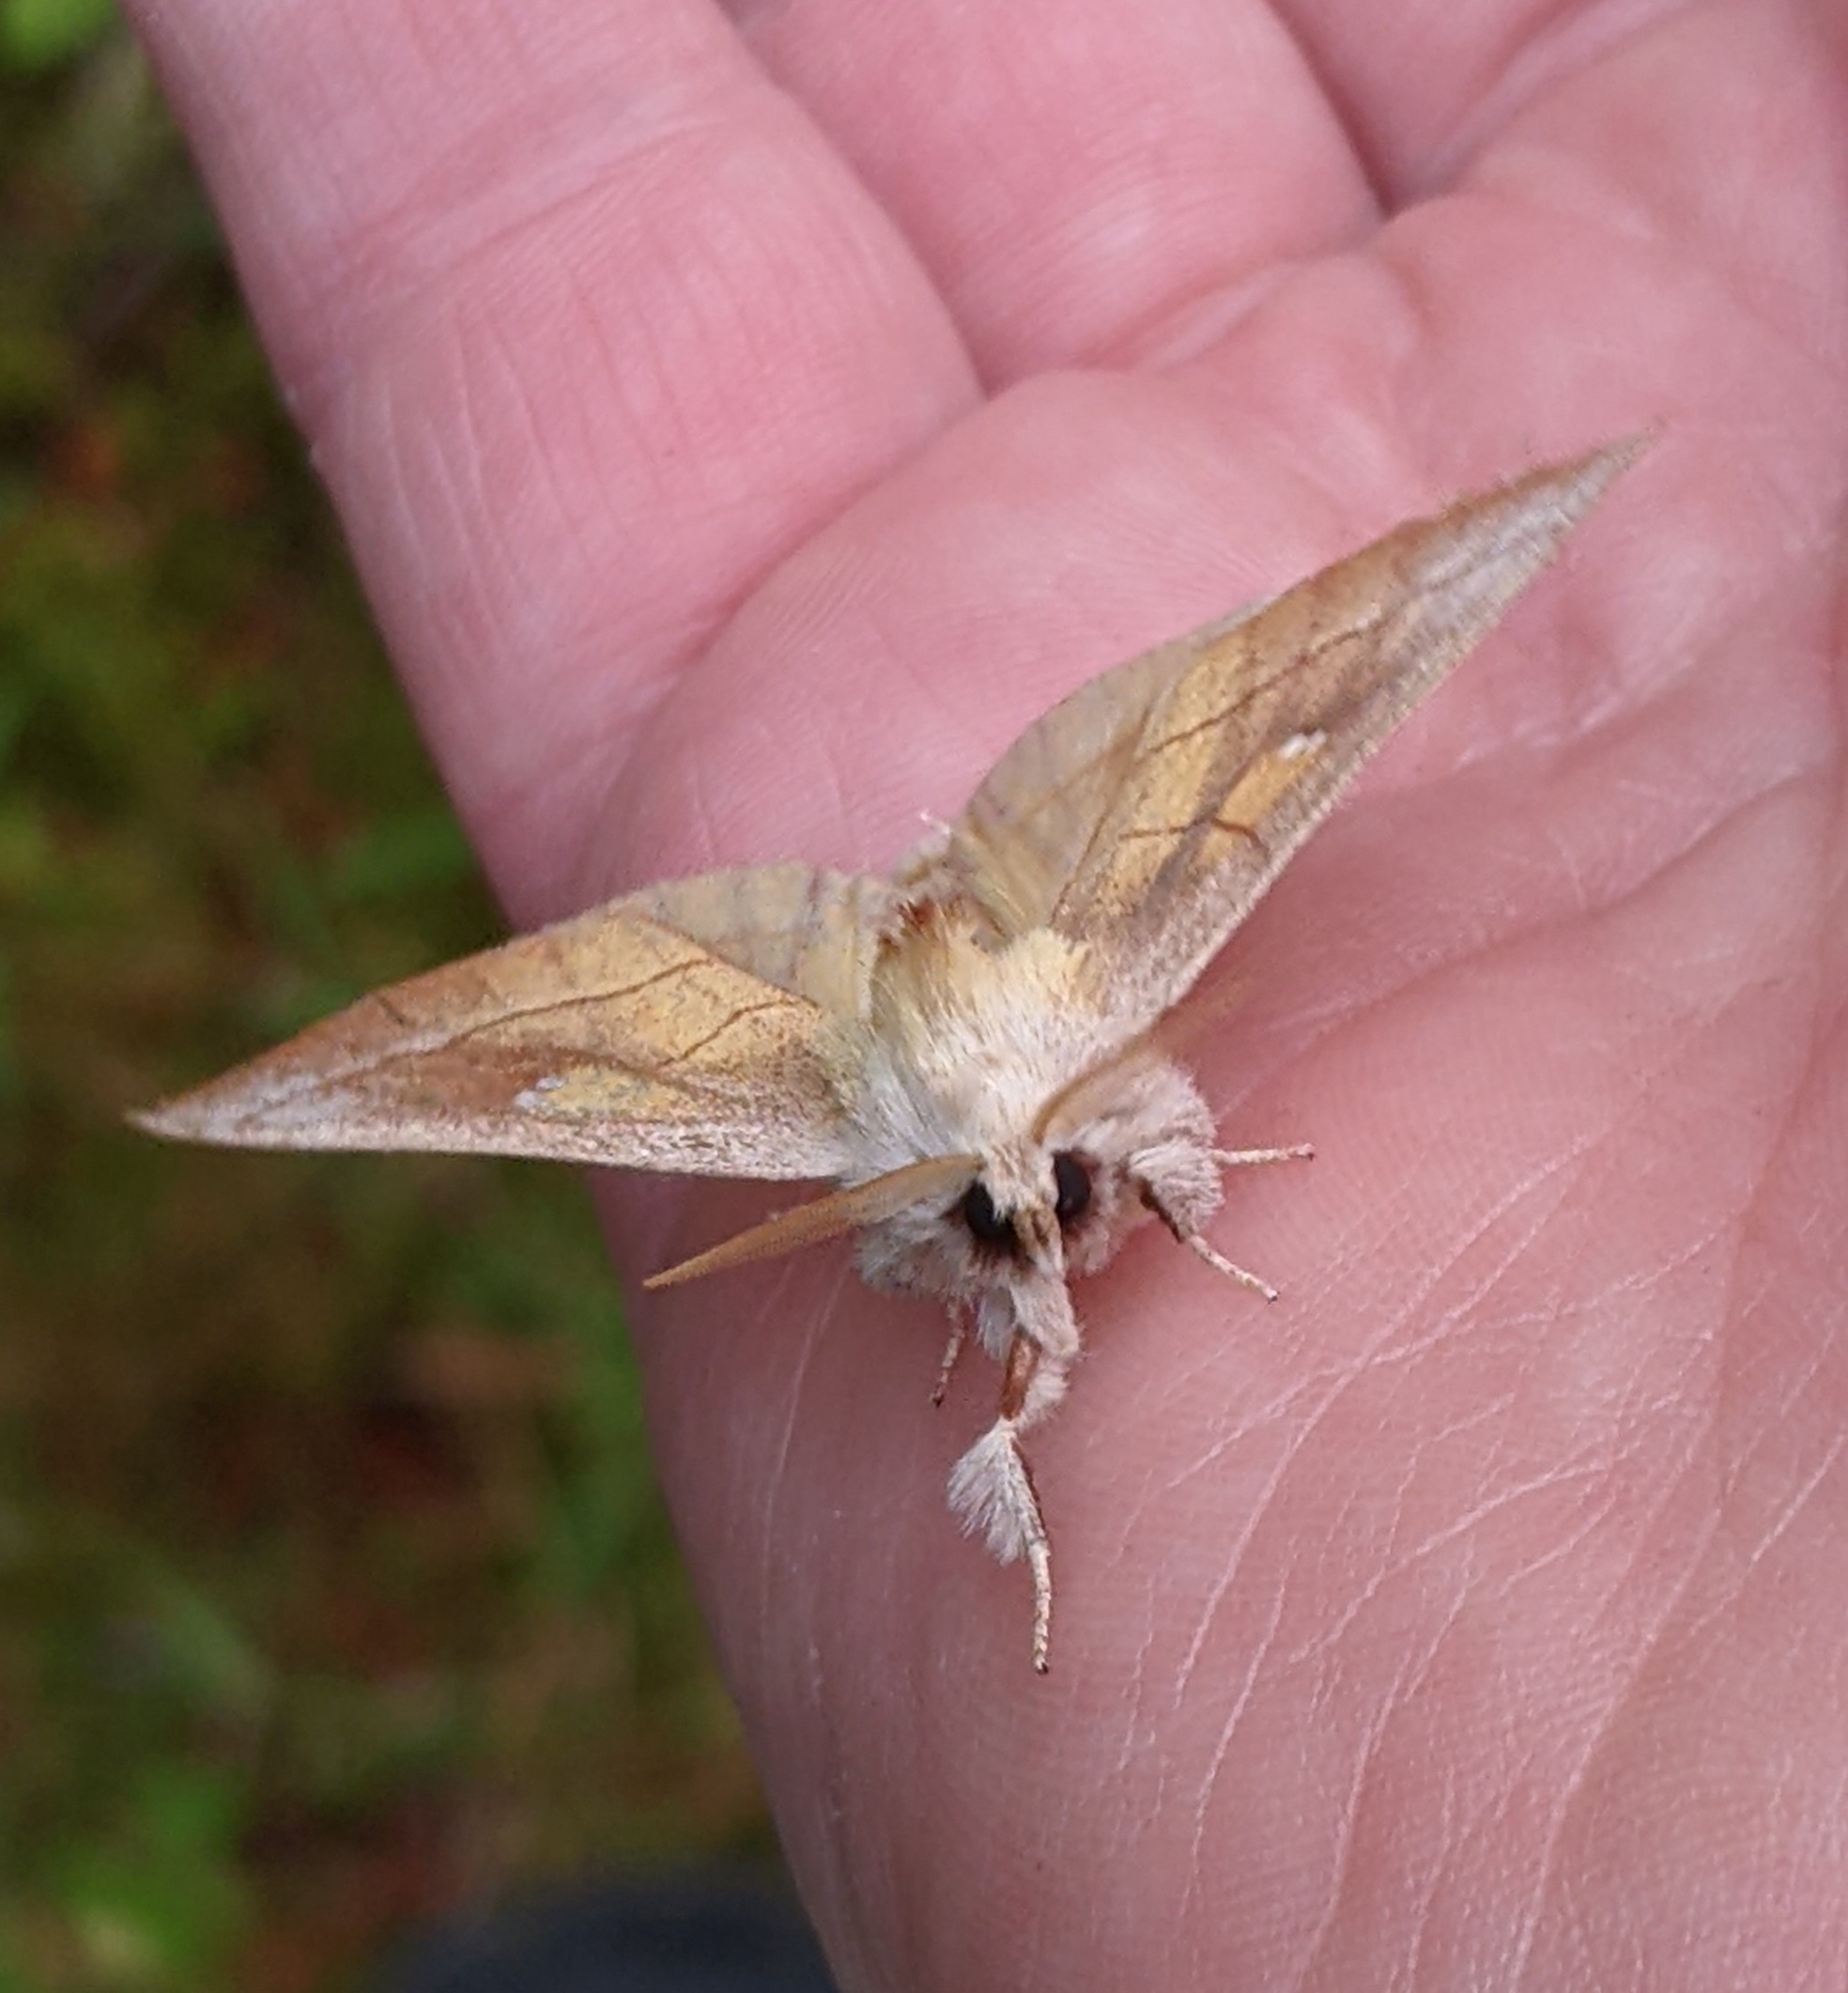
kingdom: Animalia
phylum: Arthropoda
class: Insecta
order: Lepidoptera
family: Notodontidae
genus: Nadata
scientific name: Nadata gibbosa
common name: White-dotted prominent
